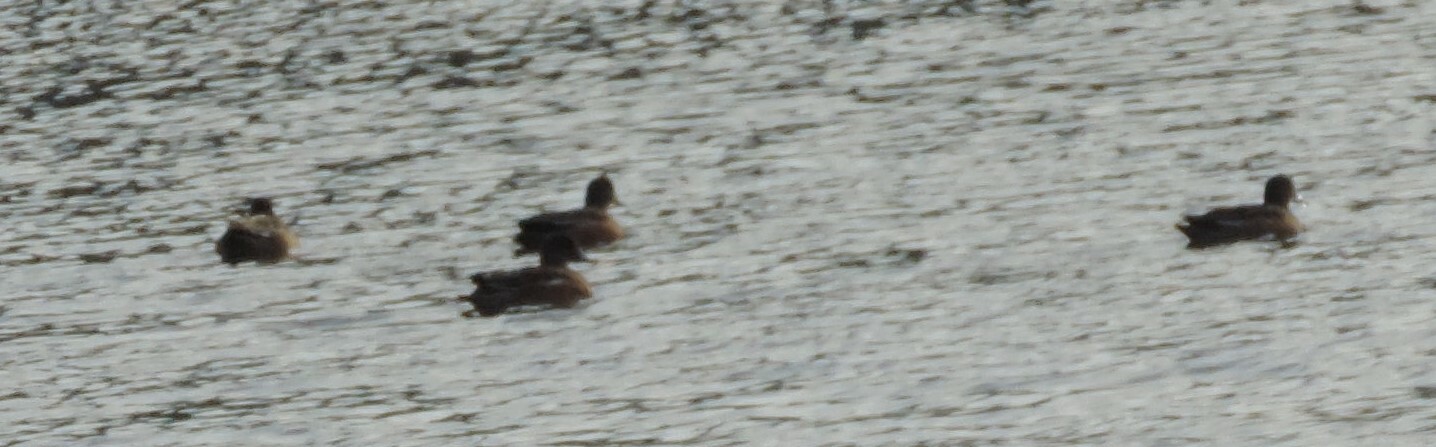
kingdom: Animalia
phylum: Chordata
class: Aves
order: Anseriformes
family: Anatidae
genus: Mareca
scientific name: Mareca americana
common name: American wigeon
